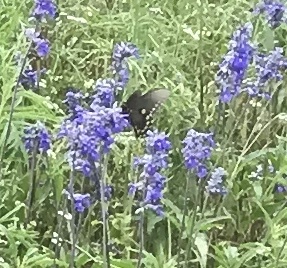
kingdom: Animalia
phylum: Arthropoda
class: Insecta
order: Lepidoptera
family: Papilionidae
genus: Battus
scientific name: Battus philenor
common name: Pipevine swallowtail
